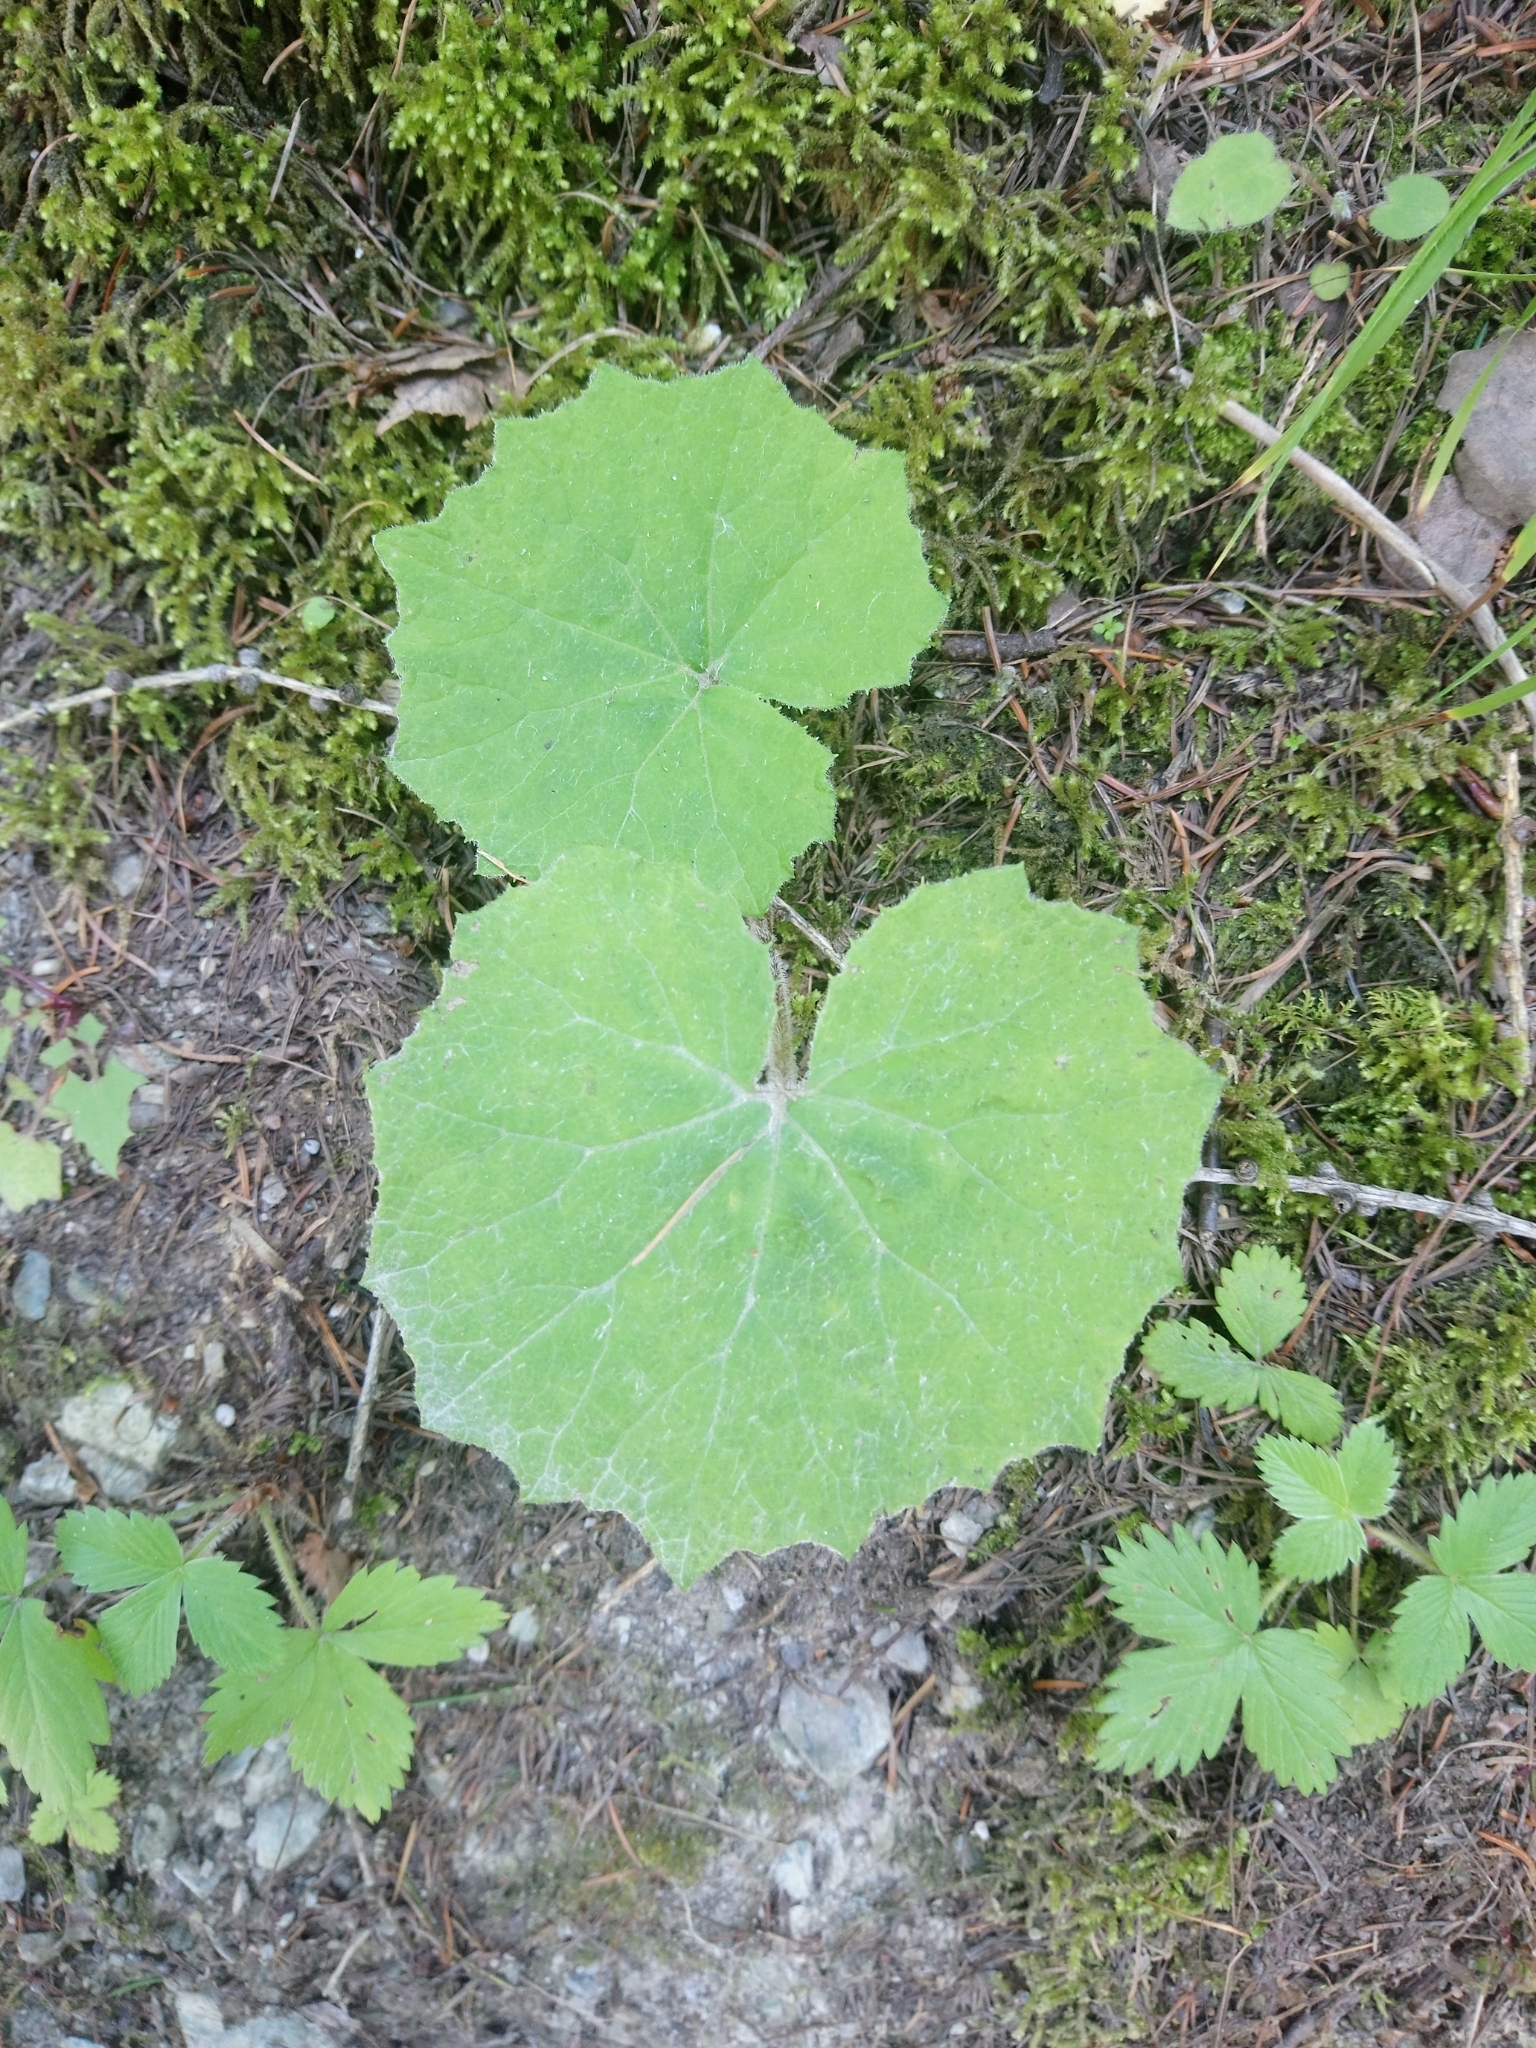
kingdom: Plantae
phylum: Tracheophyta
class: Magnoliopsida
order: Asterales
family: Asteraceae
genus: Tussilago
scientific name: Tussilago farfara
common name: Coltsfoot
